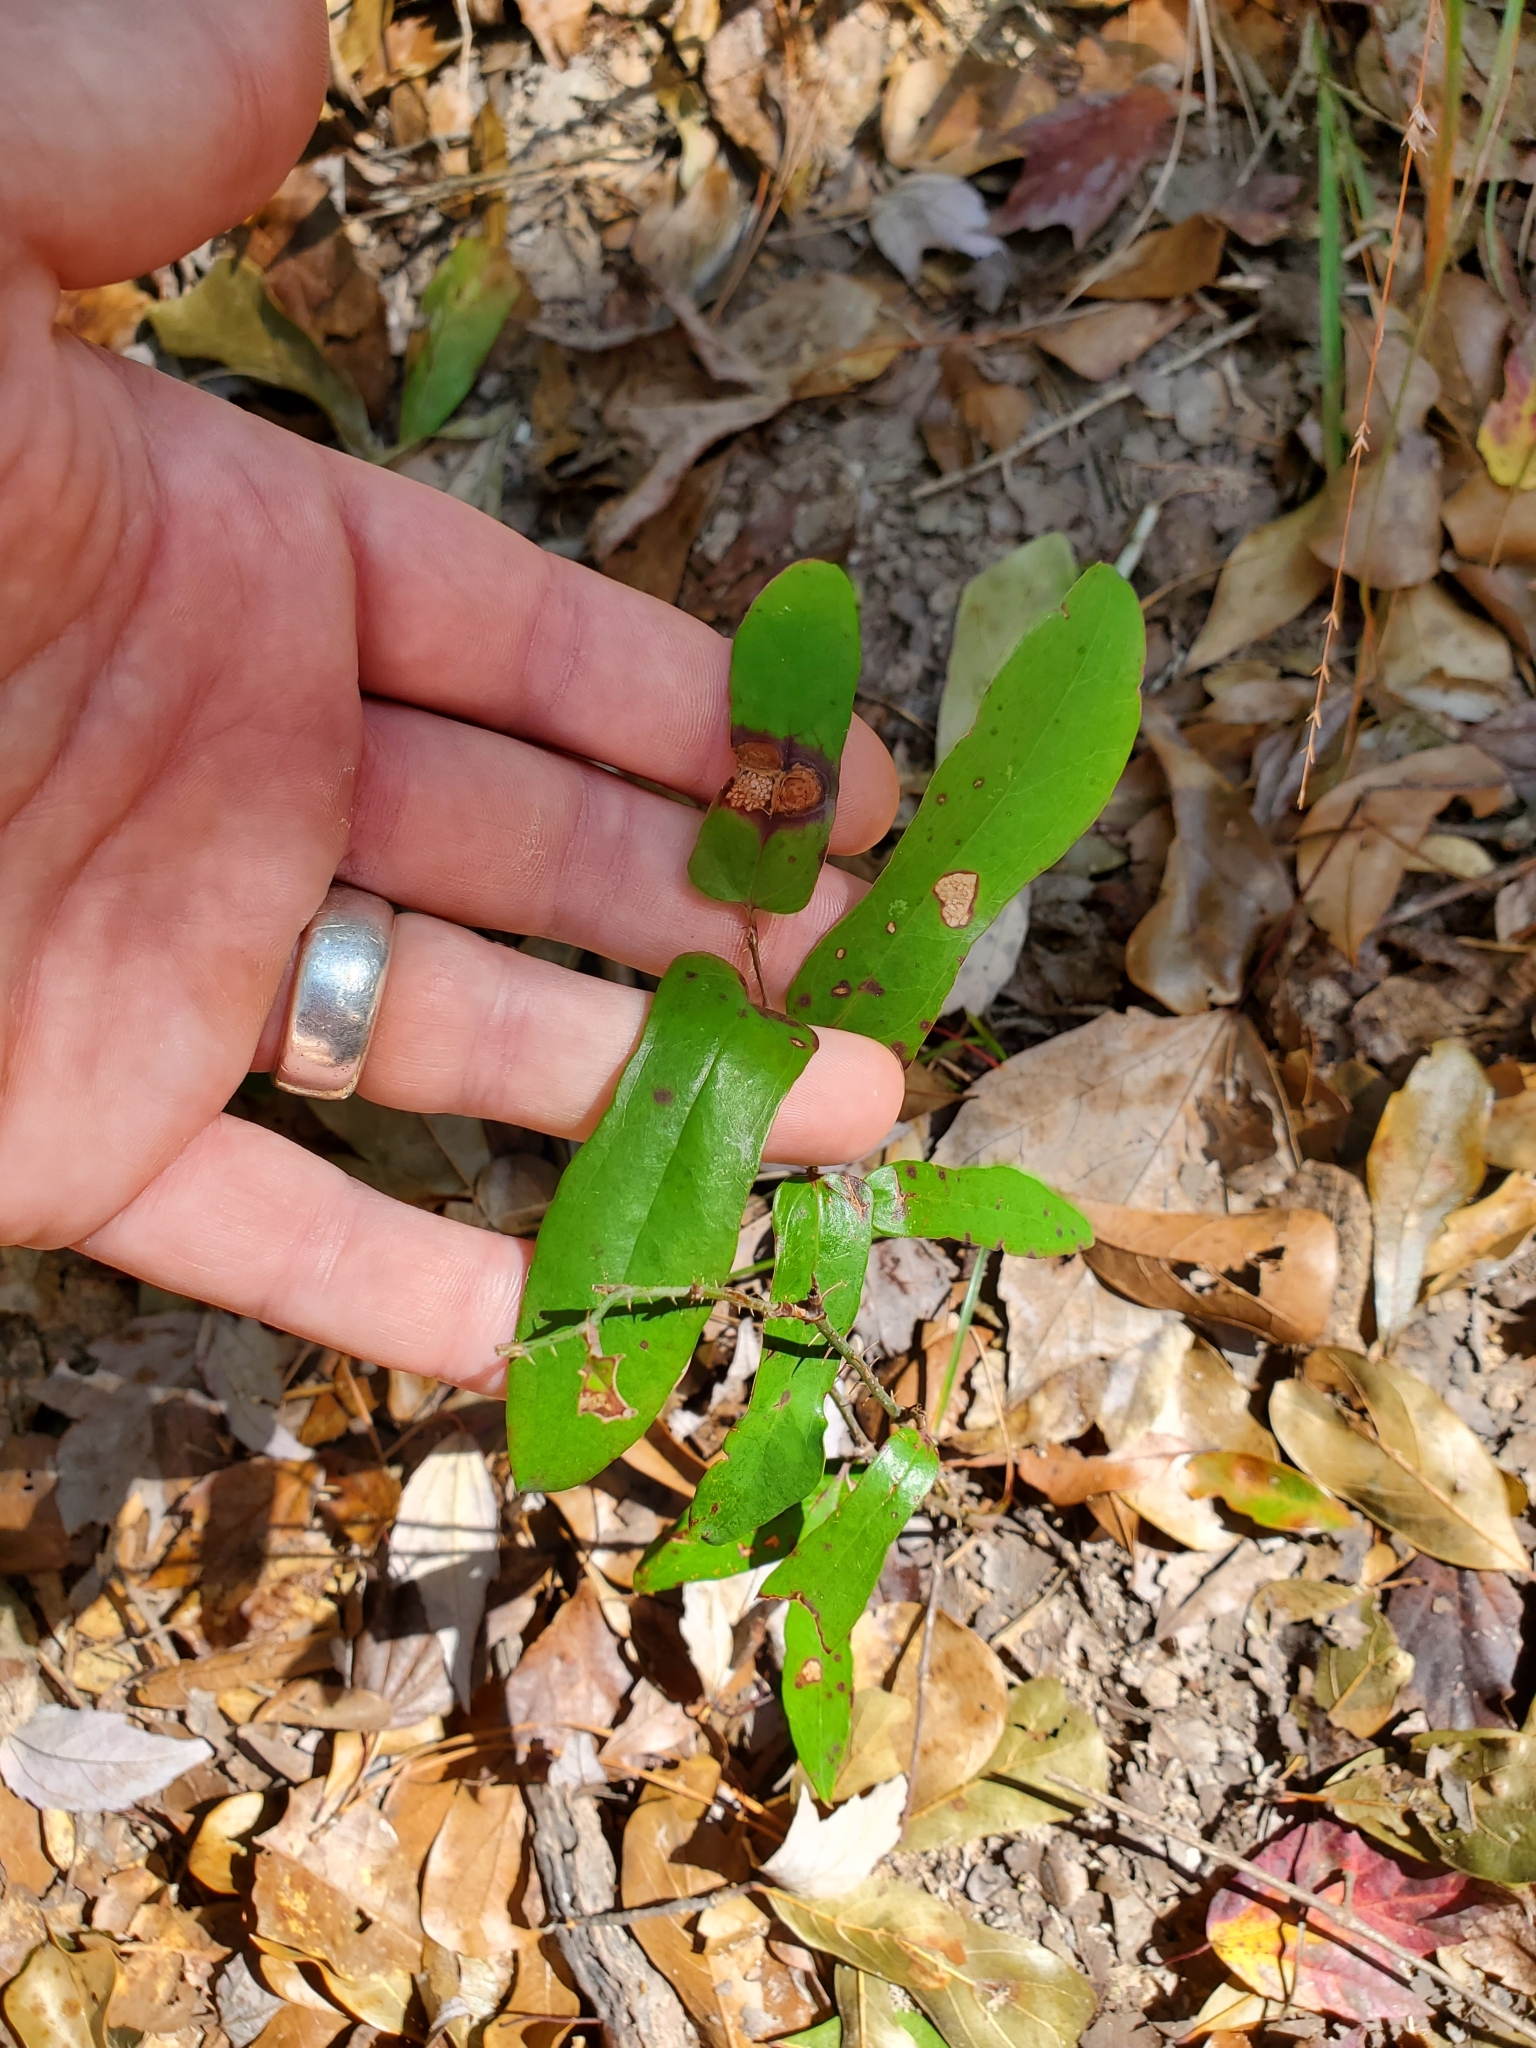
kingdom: Plantae
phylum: Tracheophyta
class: Liliopsida
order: Liliales
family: Smilacaceae
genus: Smilax
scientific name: Smilax bona-nox
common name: Catbrier
